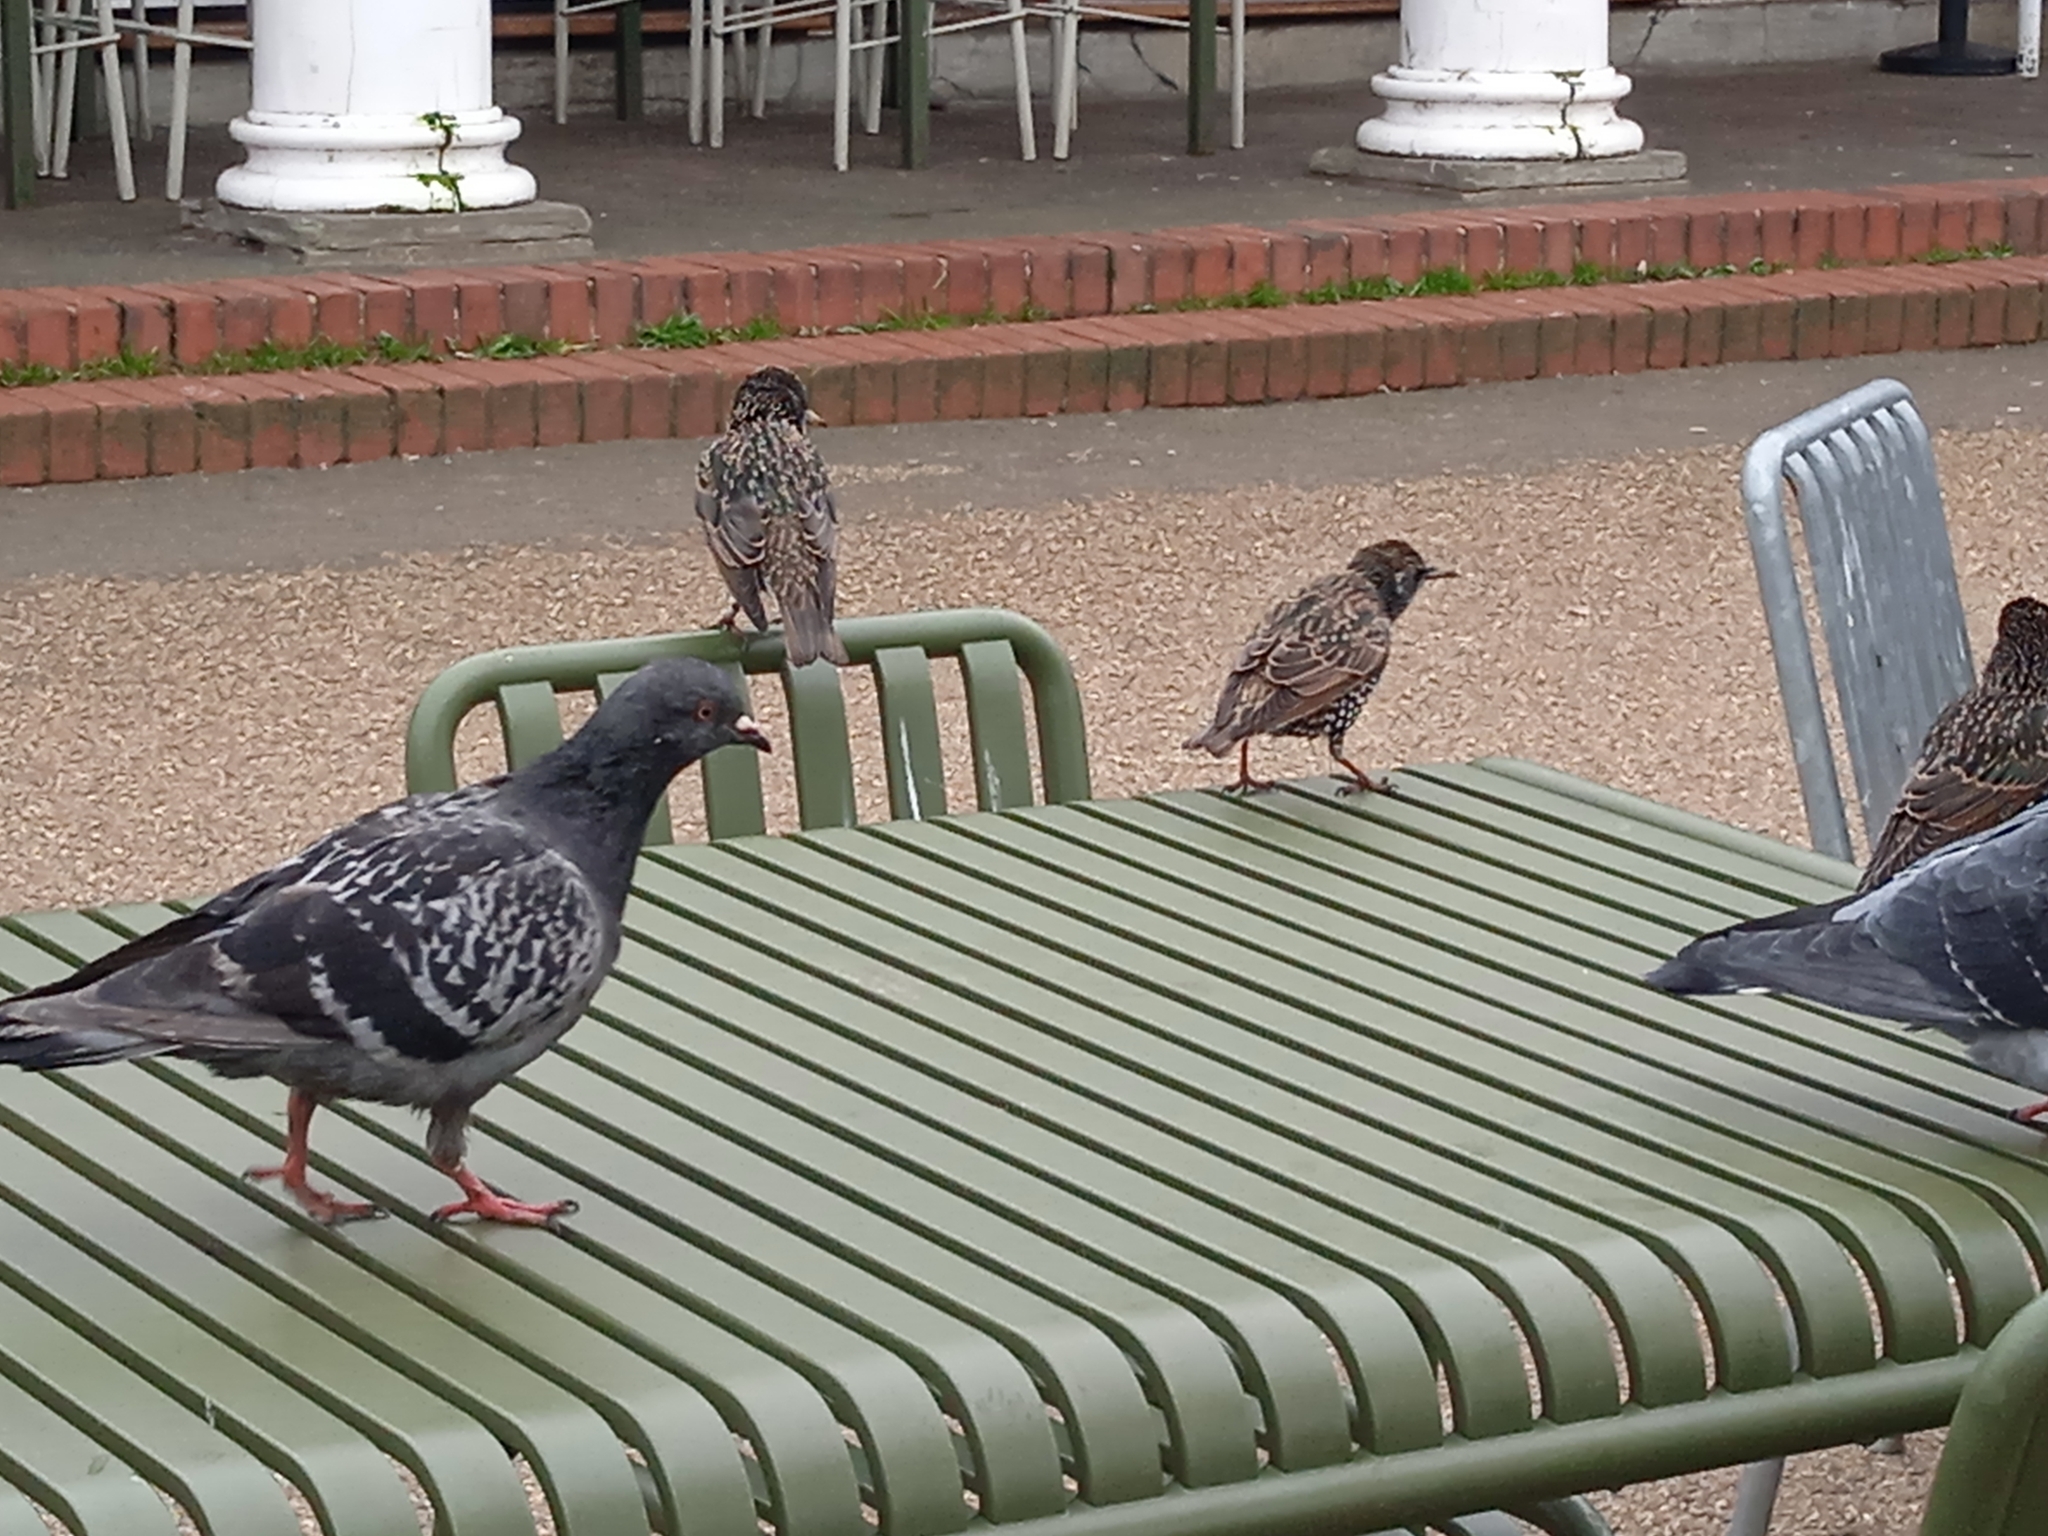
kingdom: Animalia
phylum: Chordata
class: Aves
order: Passeriformes
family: Sturnidae
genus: Sturnus
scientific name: Sturnus vulgaris
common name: Common starling
